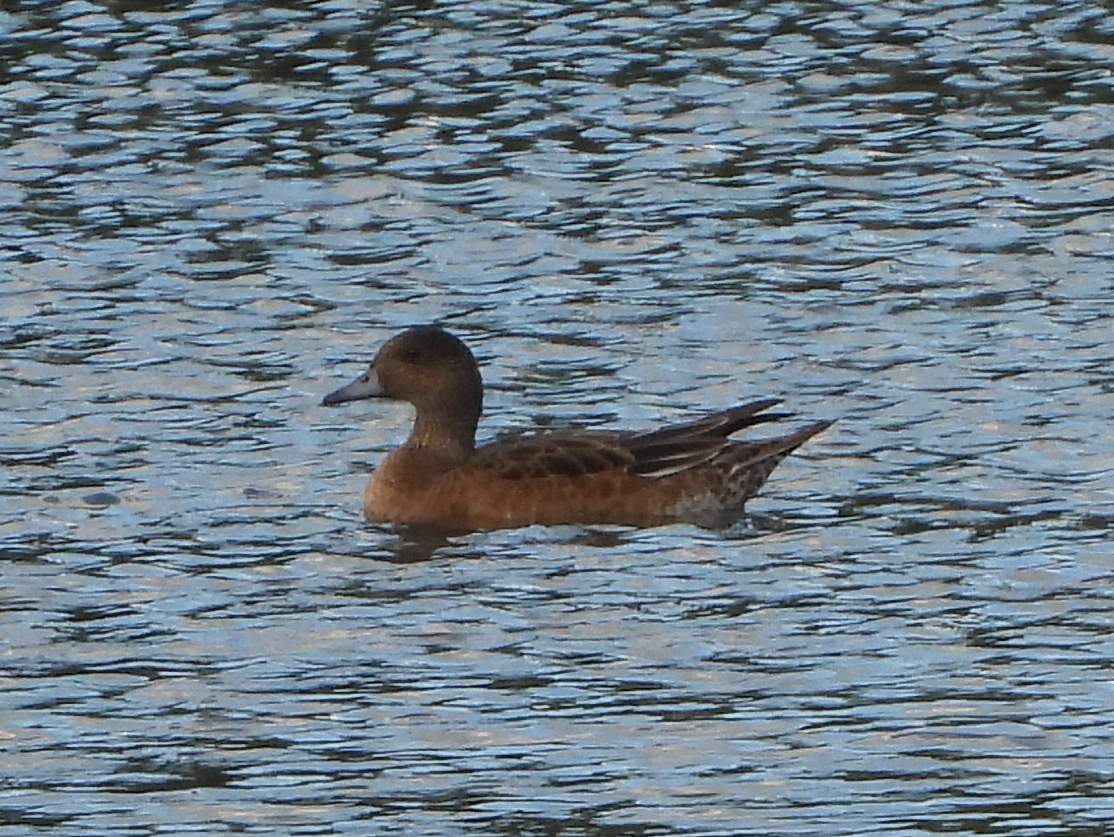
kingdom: Animalia
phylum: Chordata
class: Aves
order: Anseriformes
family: Anatidae
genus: Mareca
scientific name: Mareca penelope
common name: Eurasian wigeon
